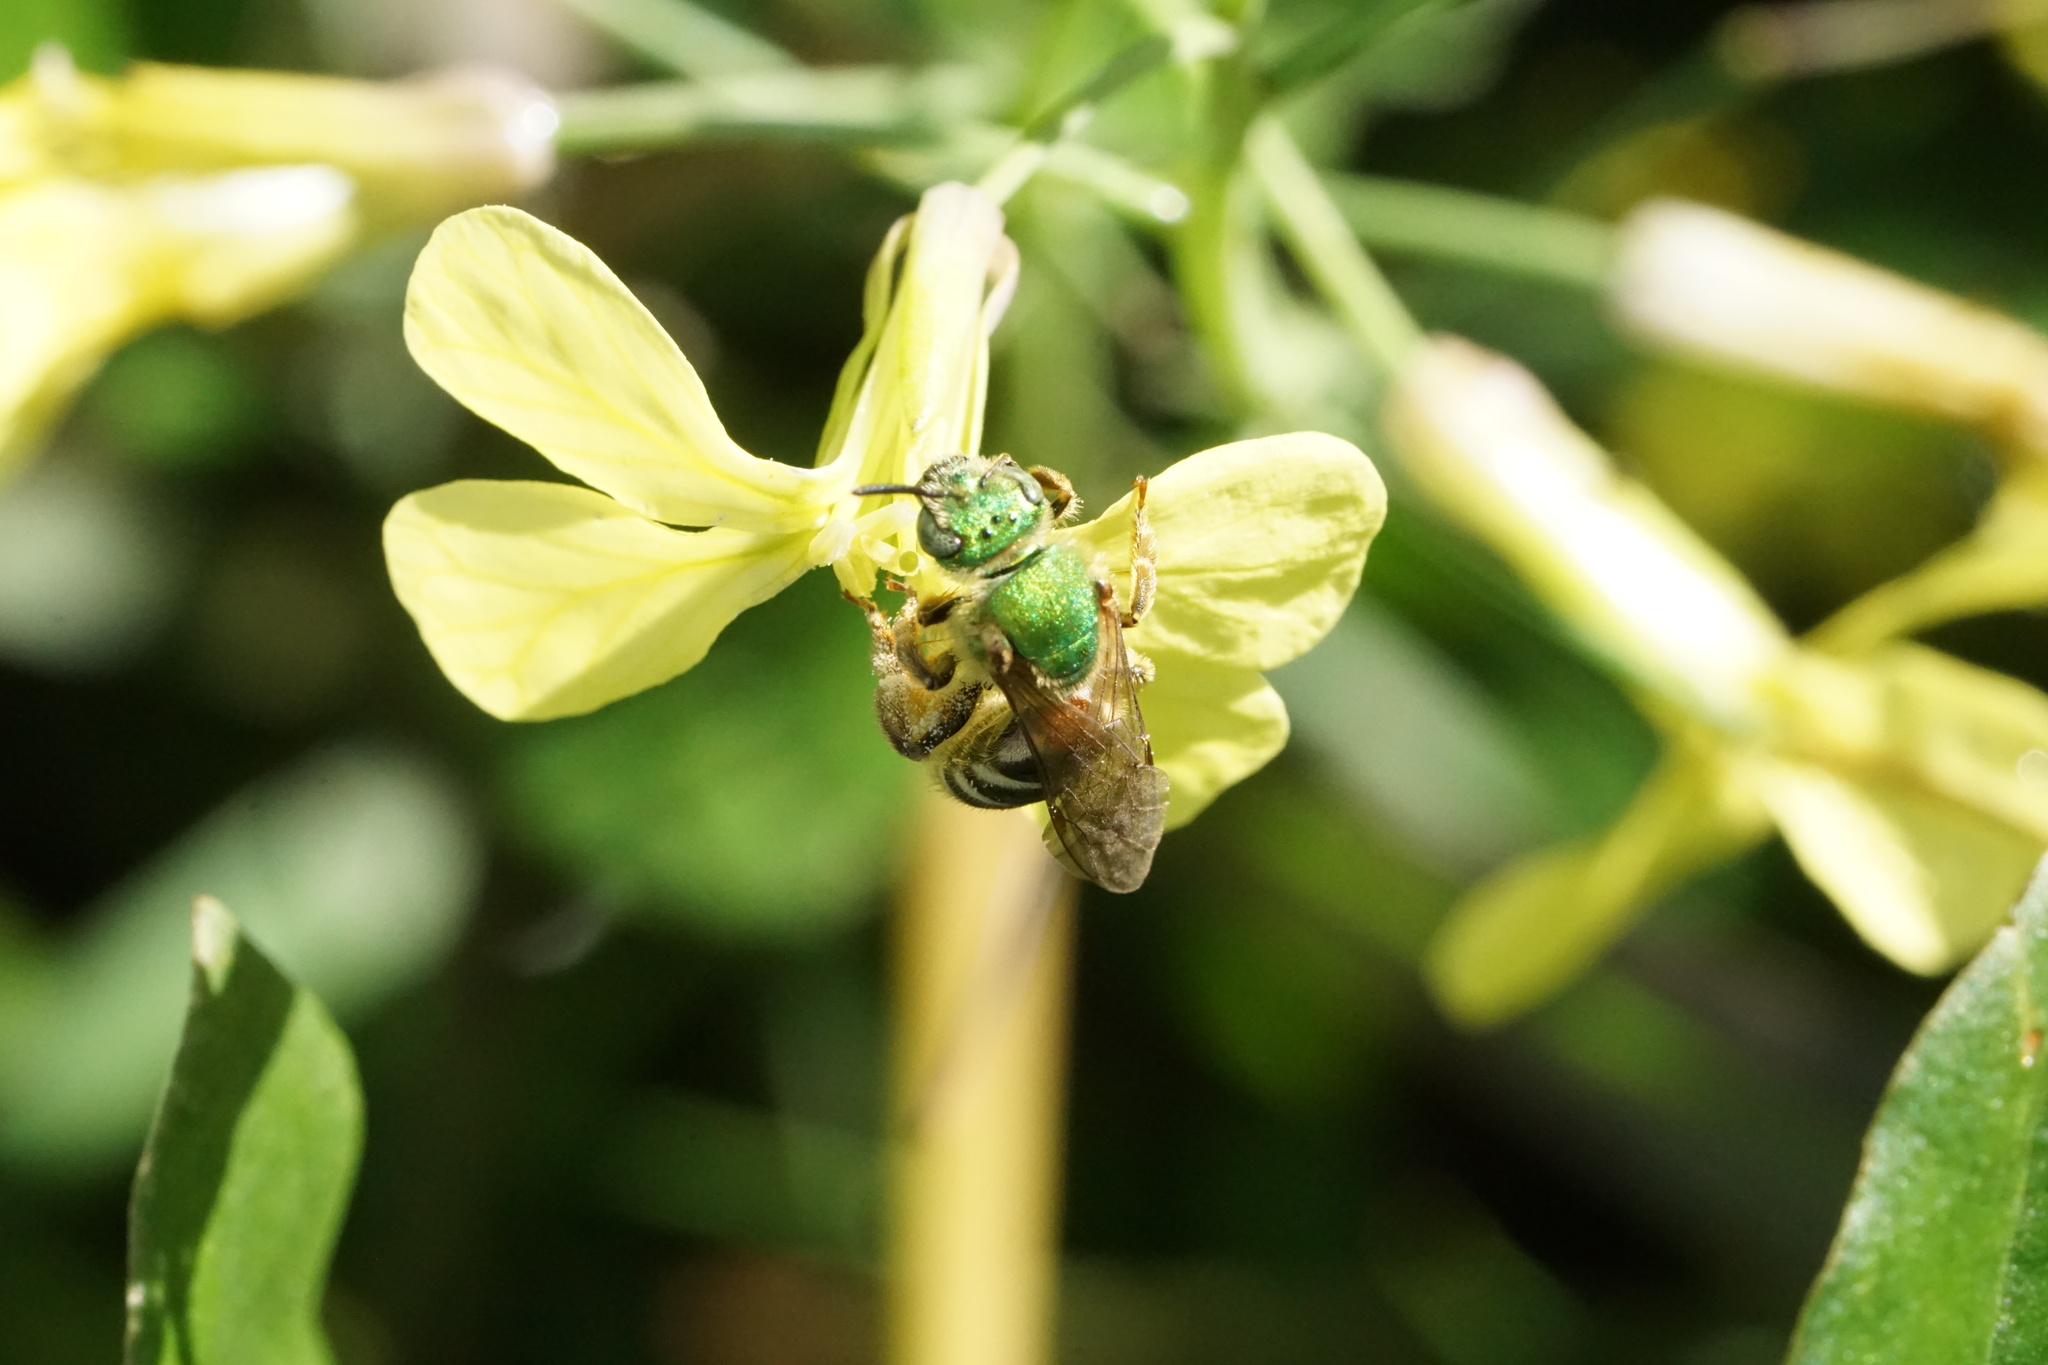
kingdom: Animalia
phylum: Arthropoda
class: Insecta
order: Hymenoptera
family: Halictidae
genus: Agapostemon
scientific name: Agapostemon virescens
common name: Bicolored striped sweat bee
